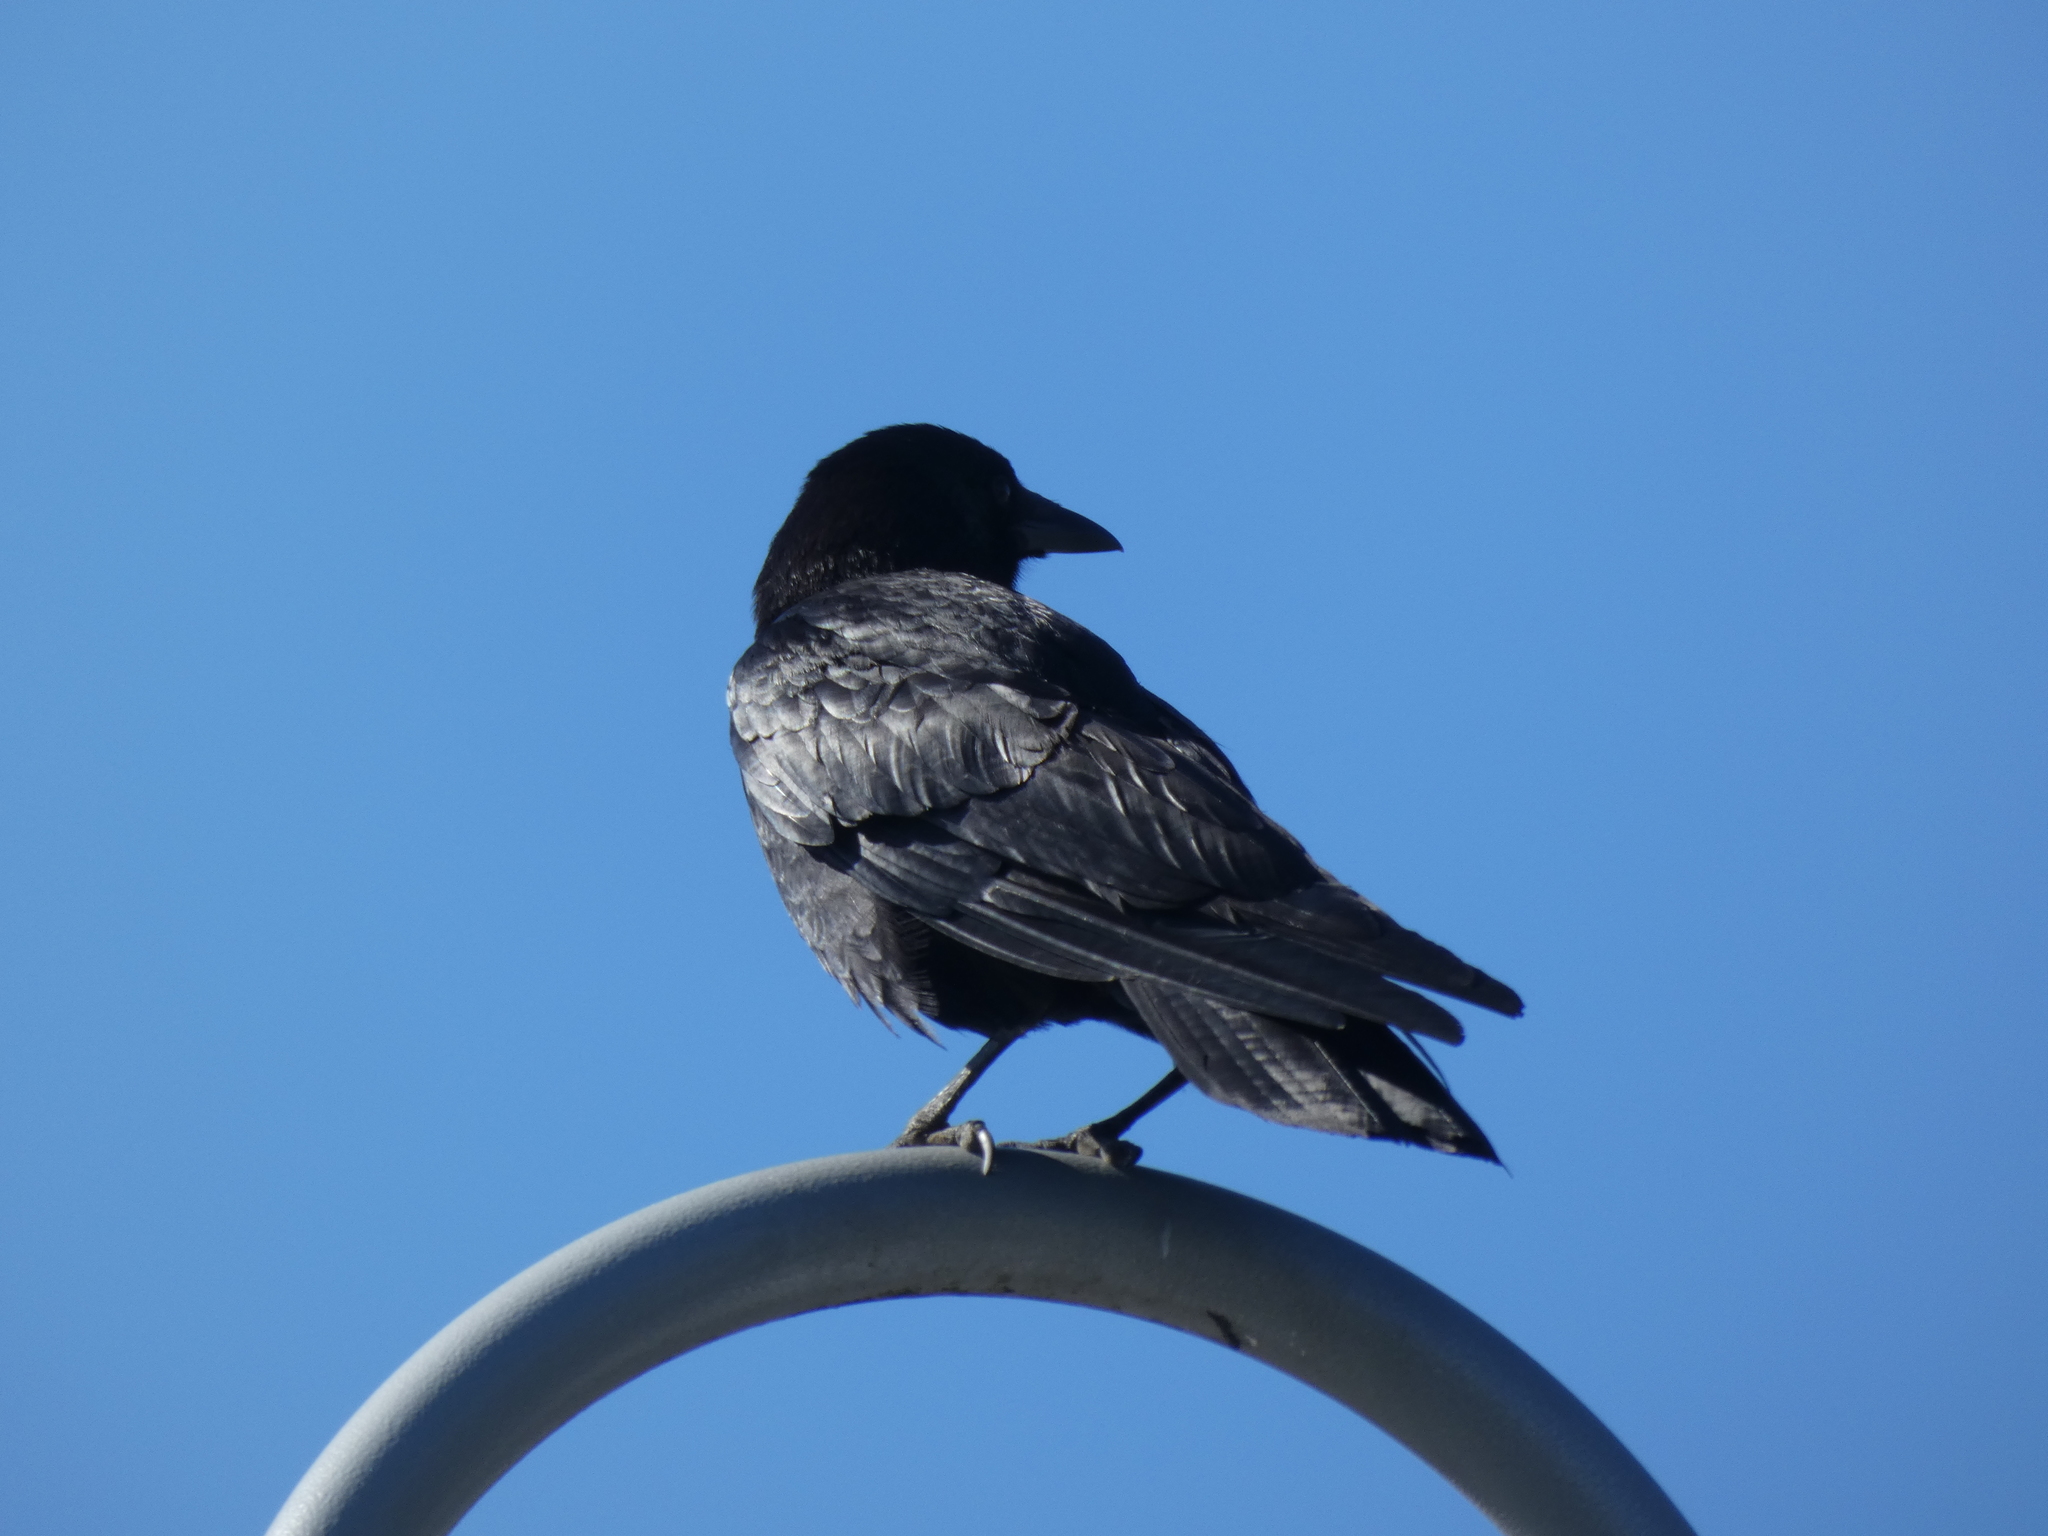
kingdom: Animalia
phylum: Chordata
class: Aves
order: Passeriformes
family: Corvidae
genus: Corvus
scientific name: Corvus brachyrhynchos
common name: American crow
